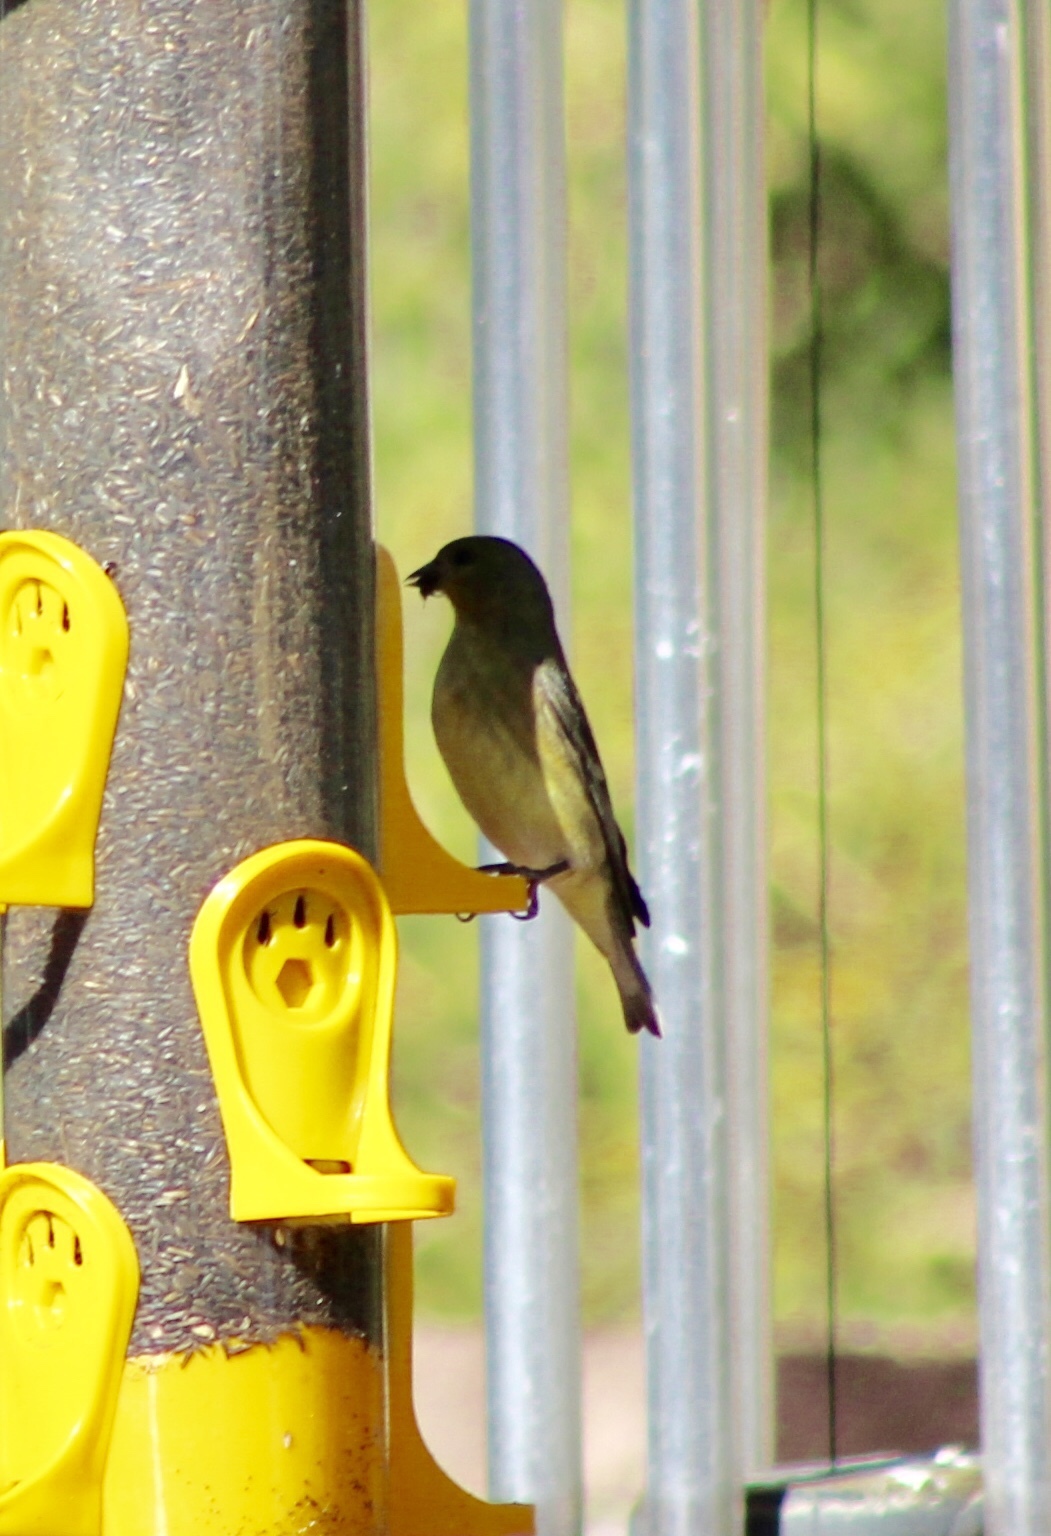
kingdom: Animalia
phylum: Chordata
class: Aves
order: Passeriformes
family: Fringillidae
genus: Spinus
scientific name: Spinus psaltria
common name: Lesser goldfinch
